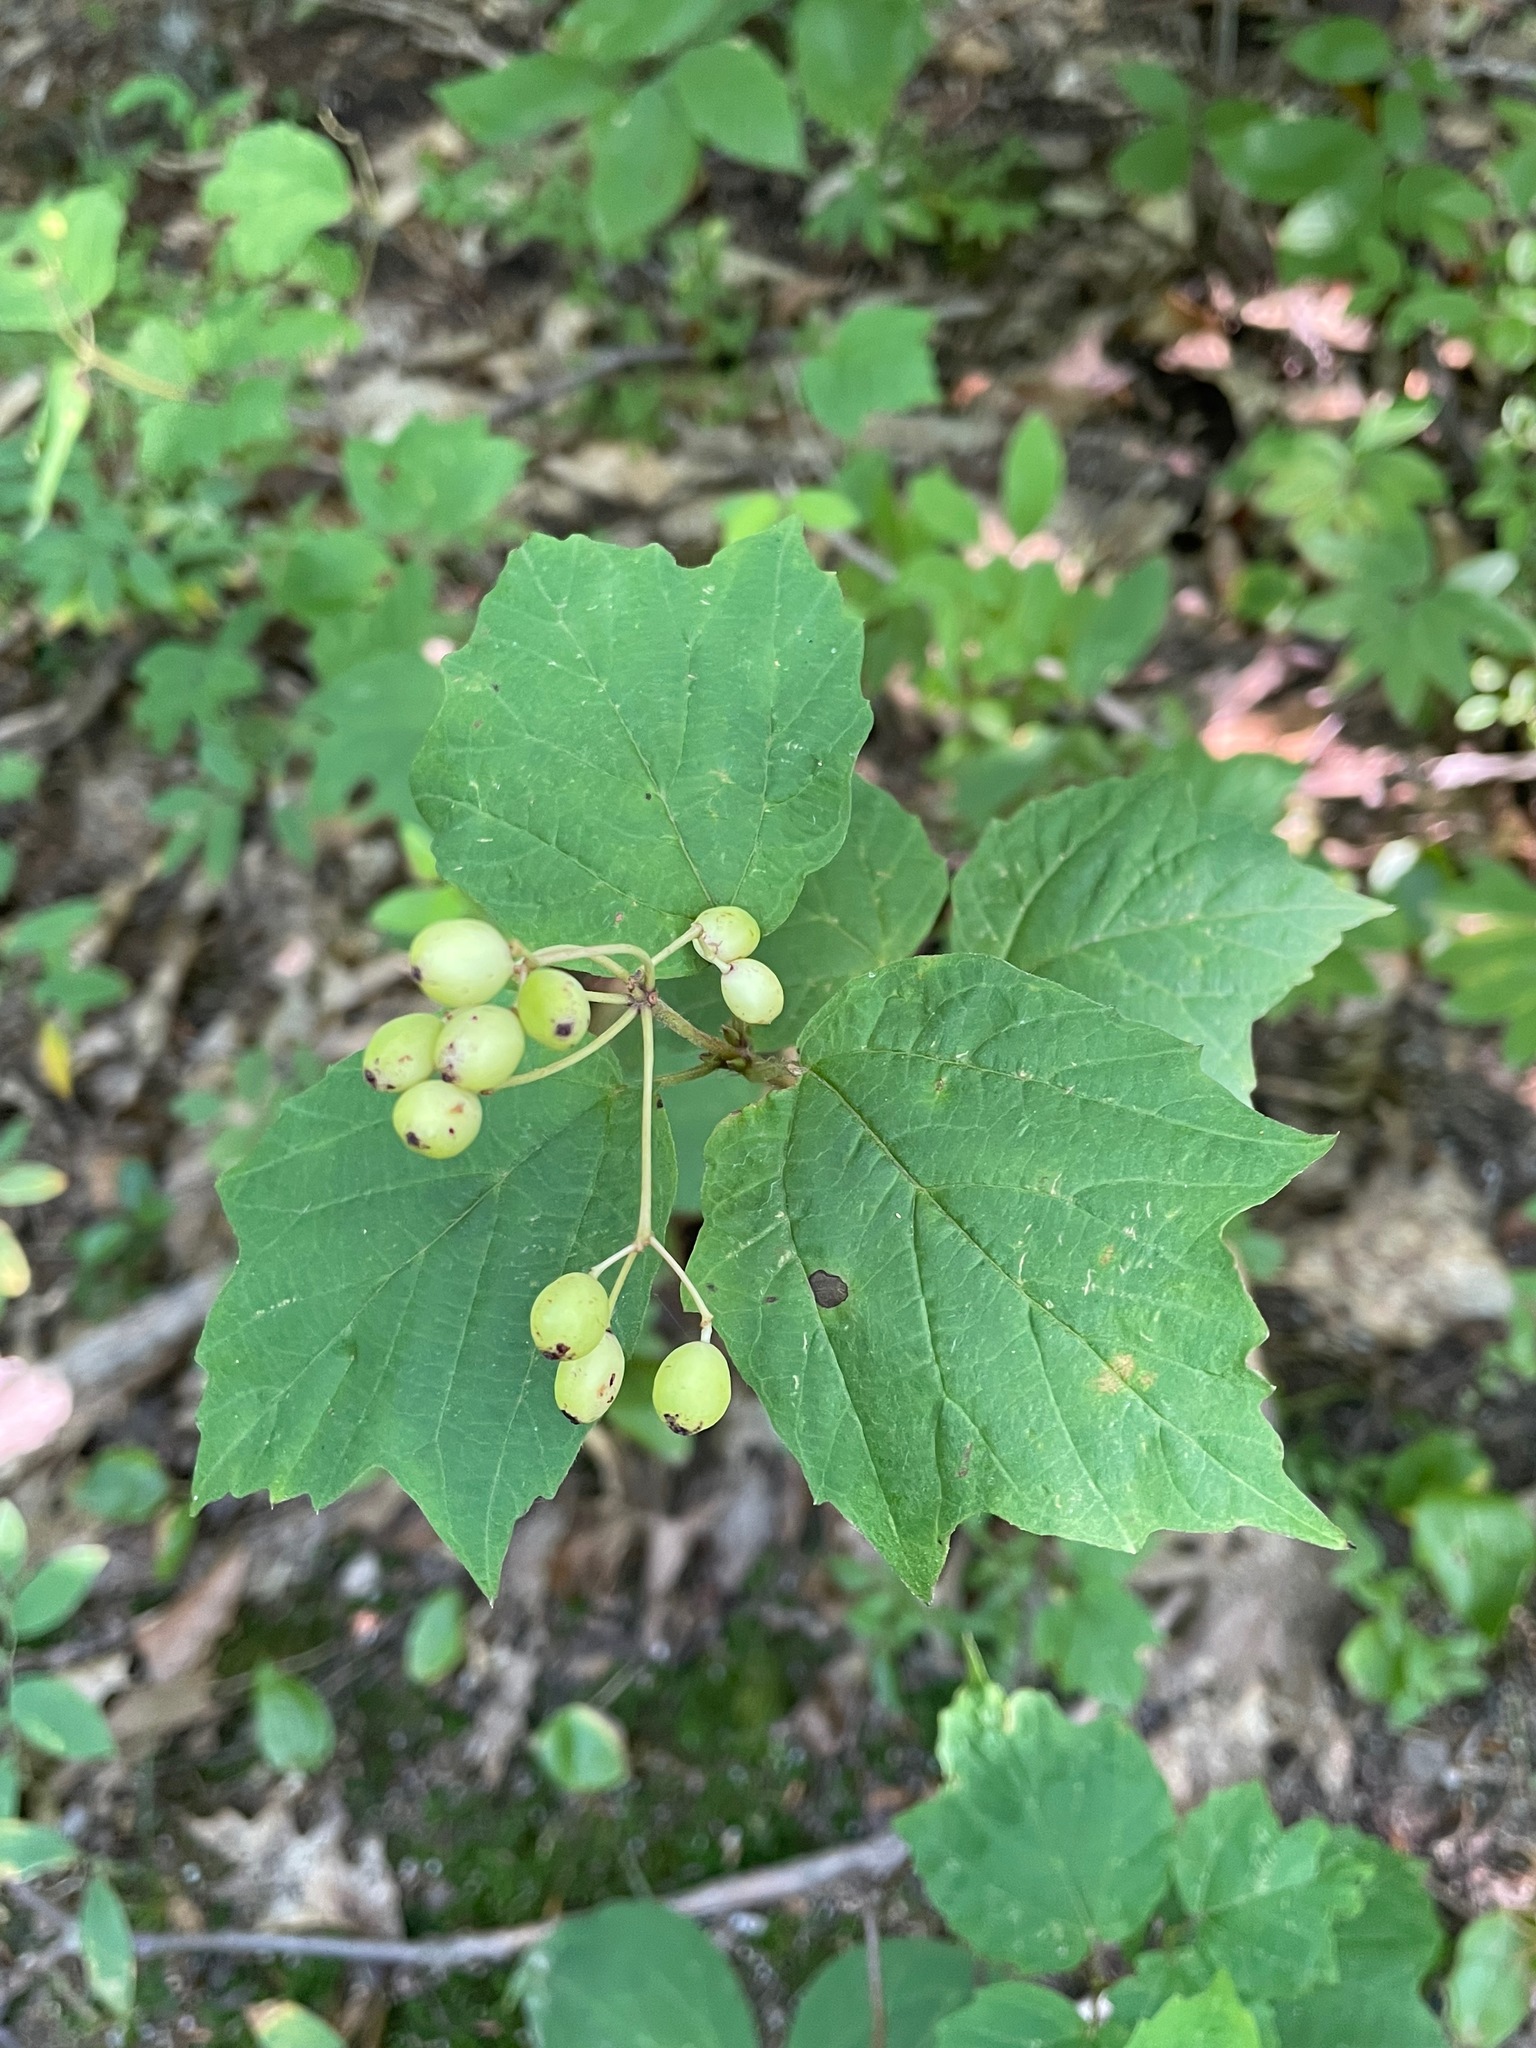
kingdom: Plantae
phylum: Tracheophyta
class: Magnoliopsida
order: Dipsacales
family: Viburnaceae
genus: Viburnum
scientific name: Viburnum acerifolium
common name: Dockmackie
